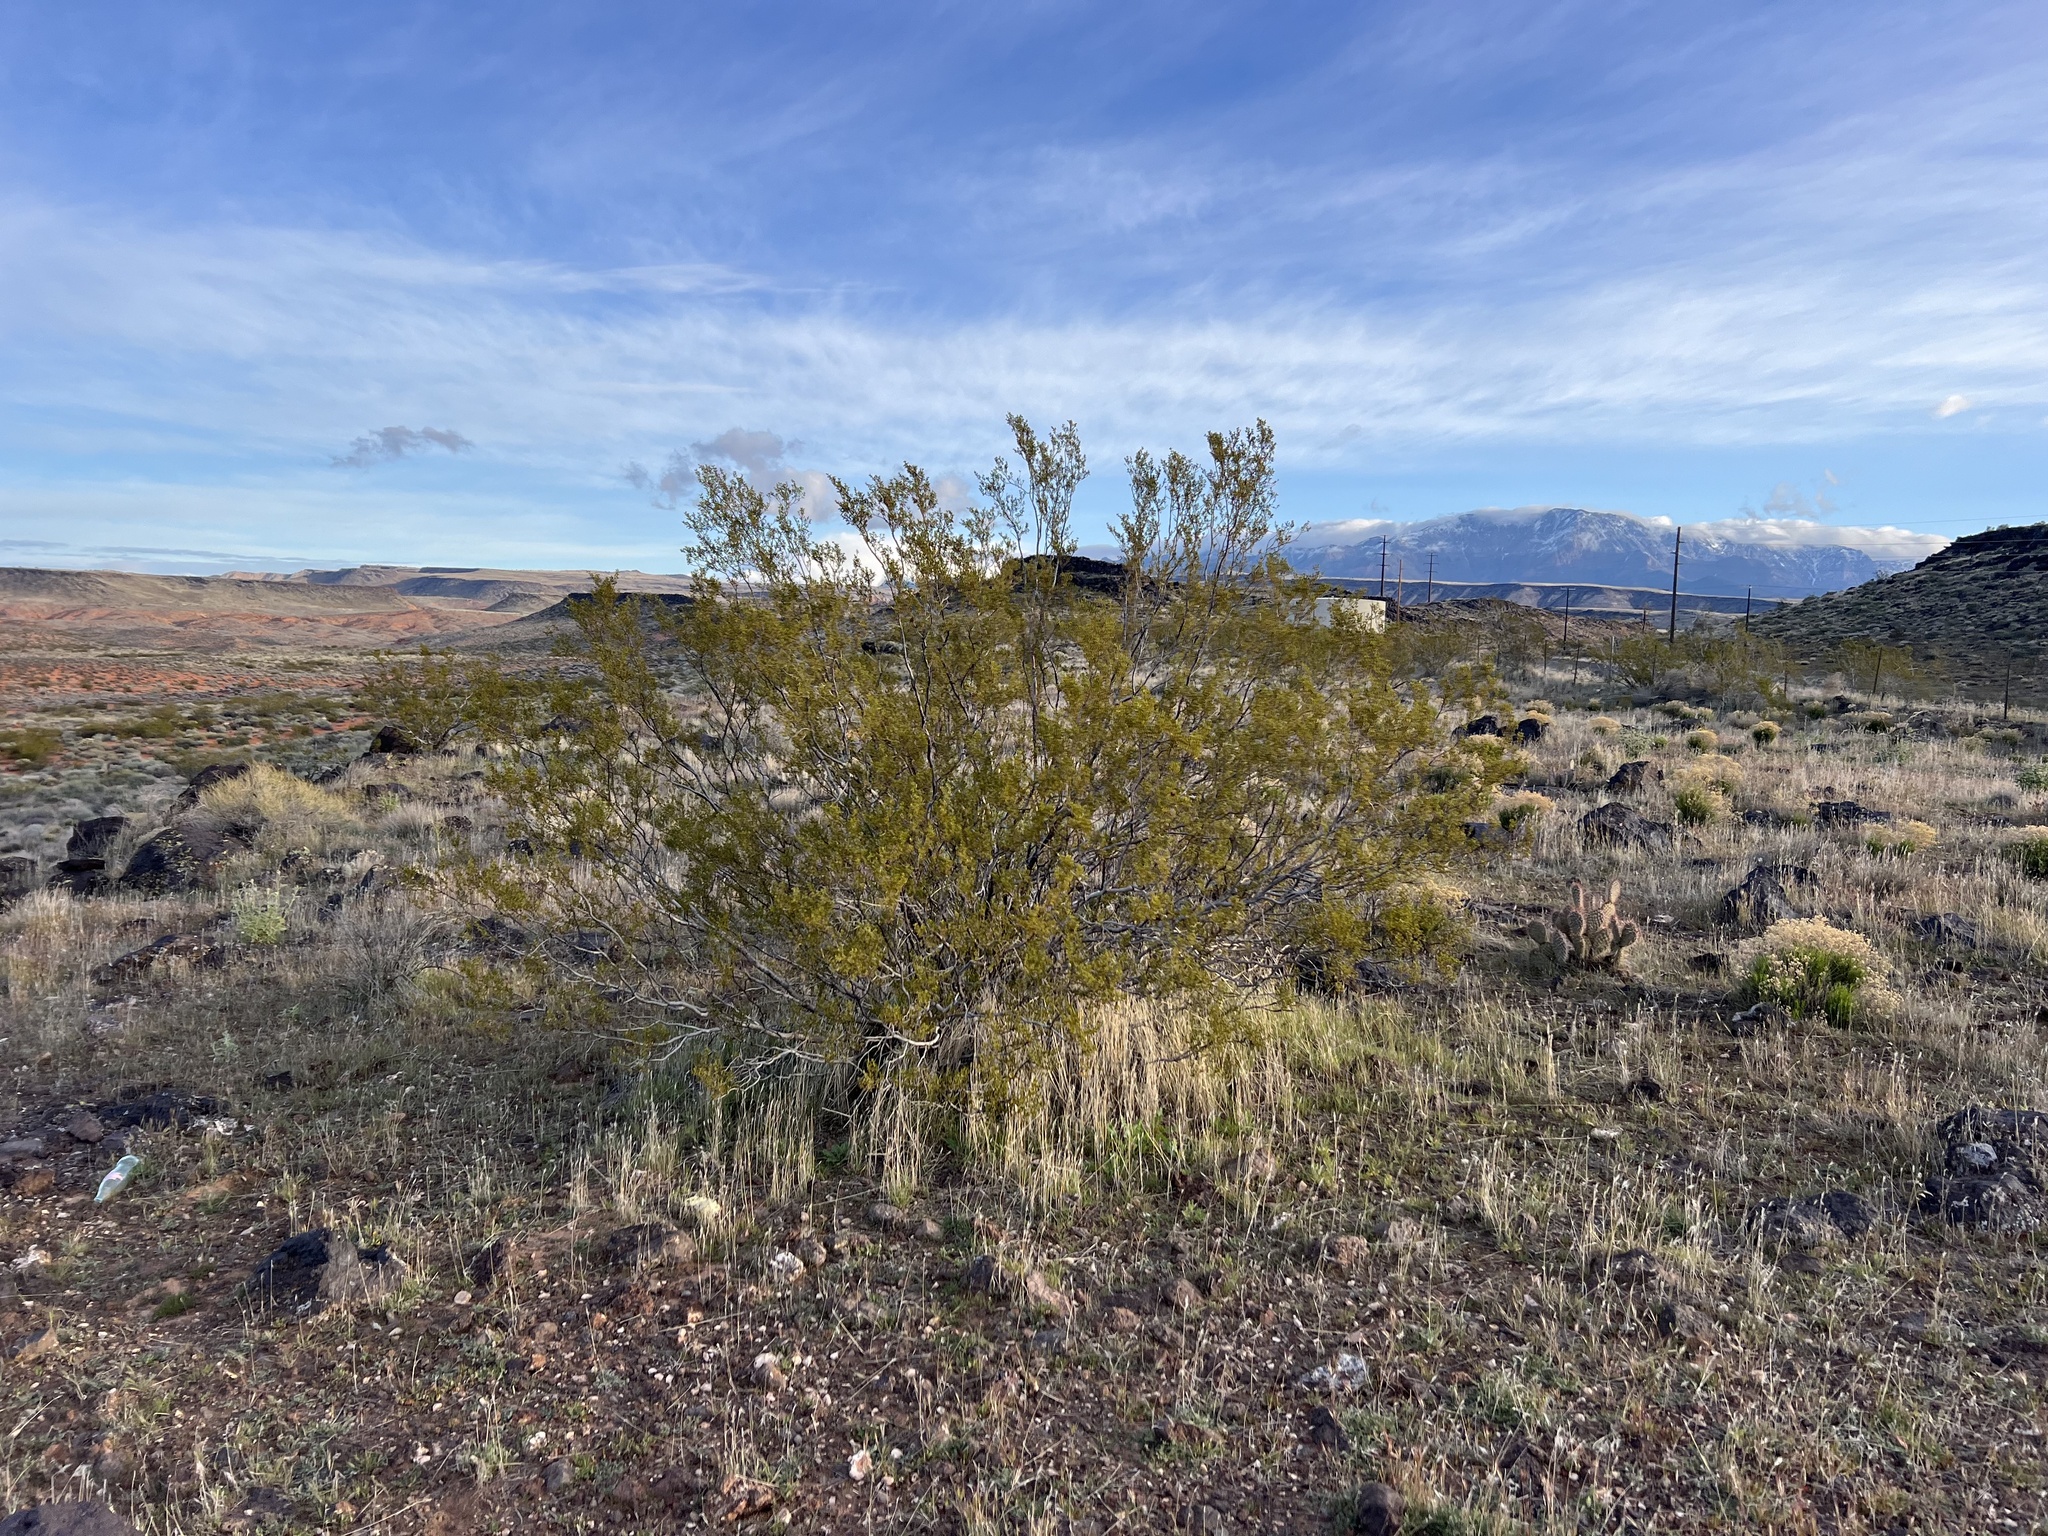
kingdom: Plantae
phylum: Tracheophyta
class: Magnoliopsida
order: Zygophyllales
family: Zygophyllaceae
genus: Larrea
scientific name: Larrea tridentata
